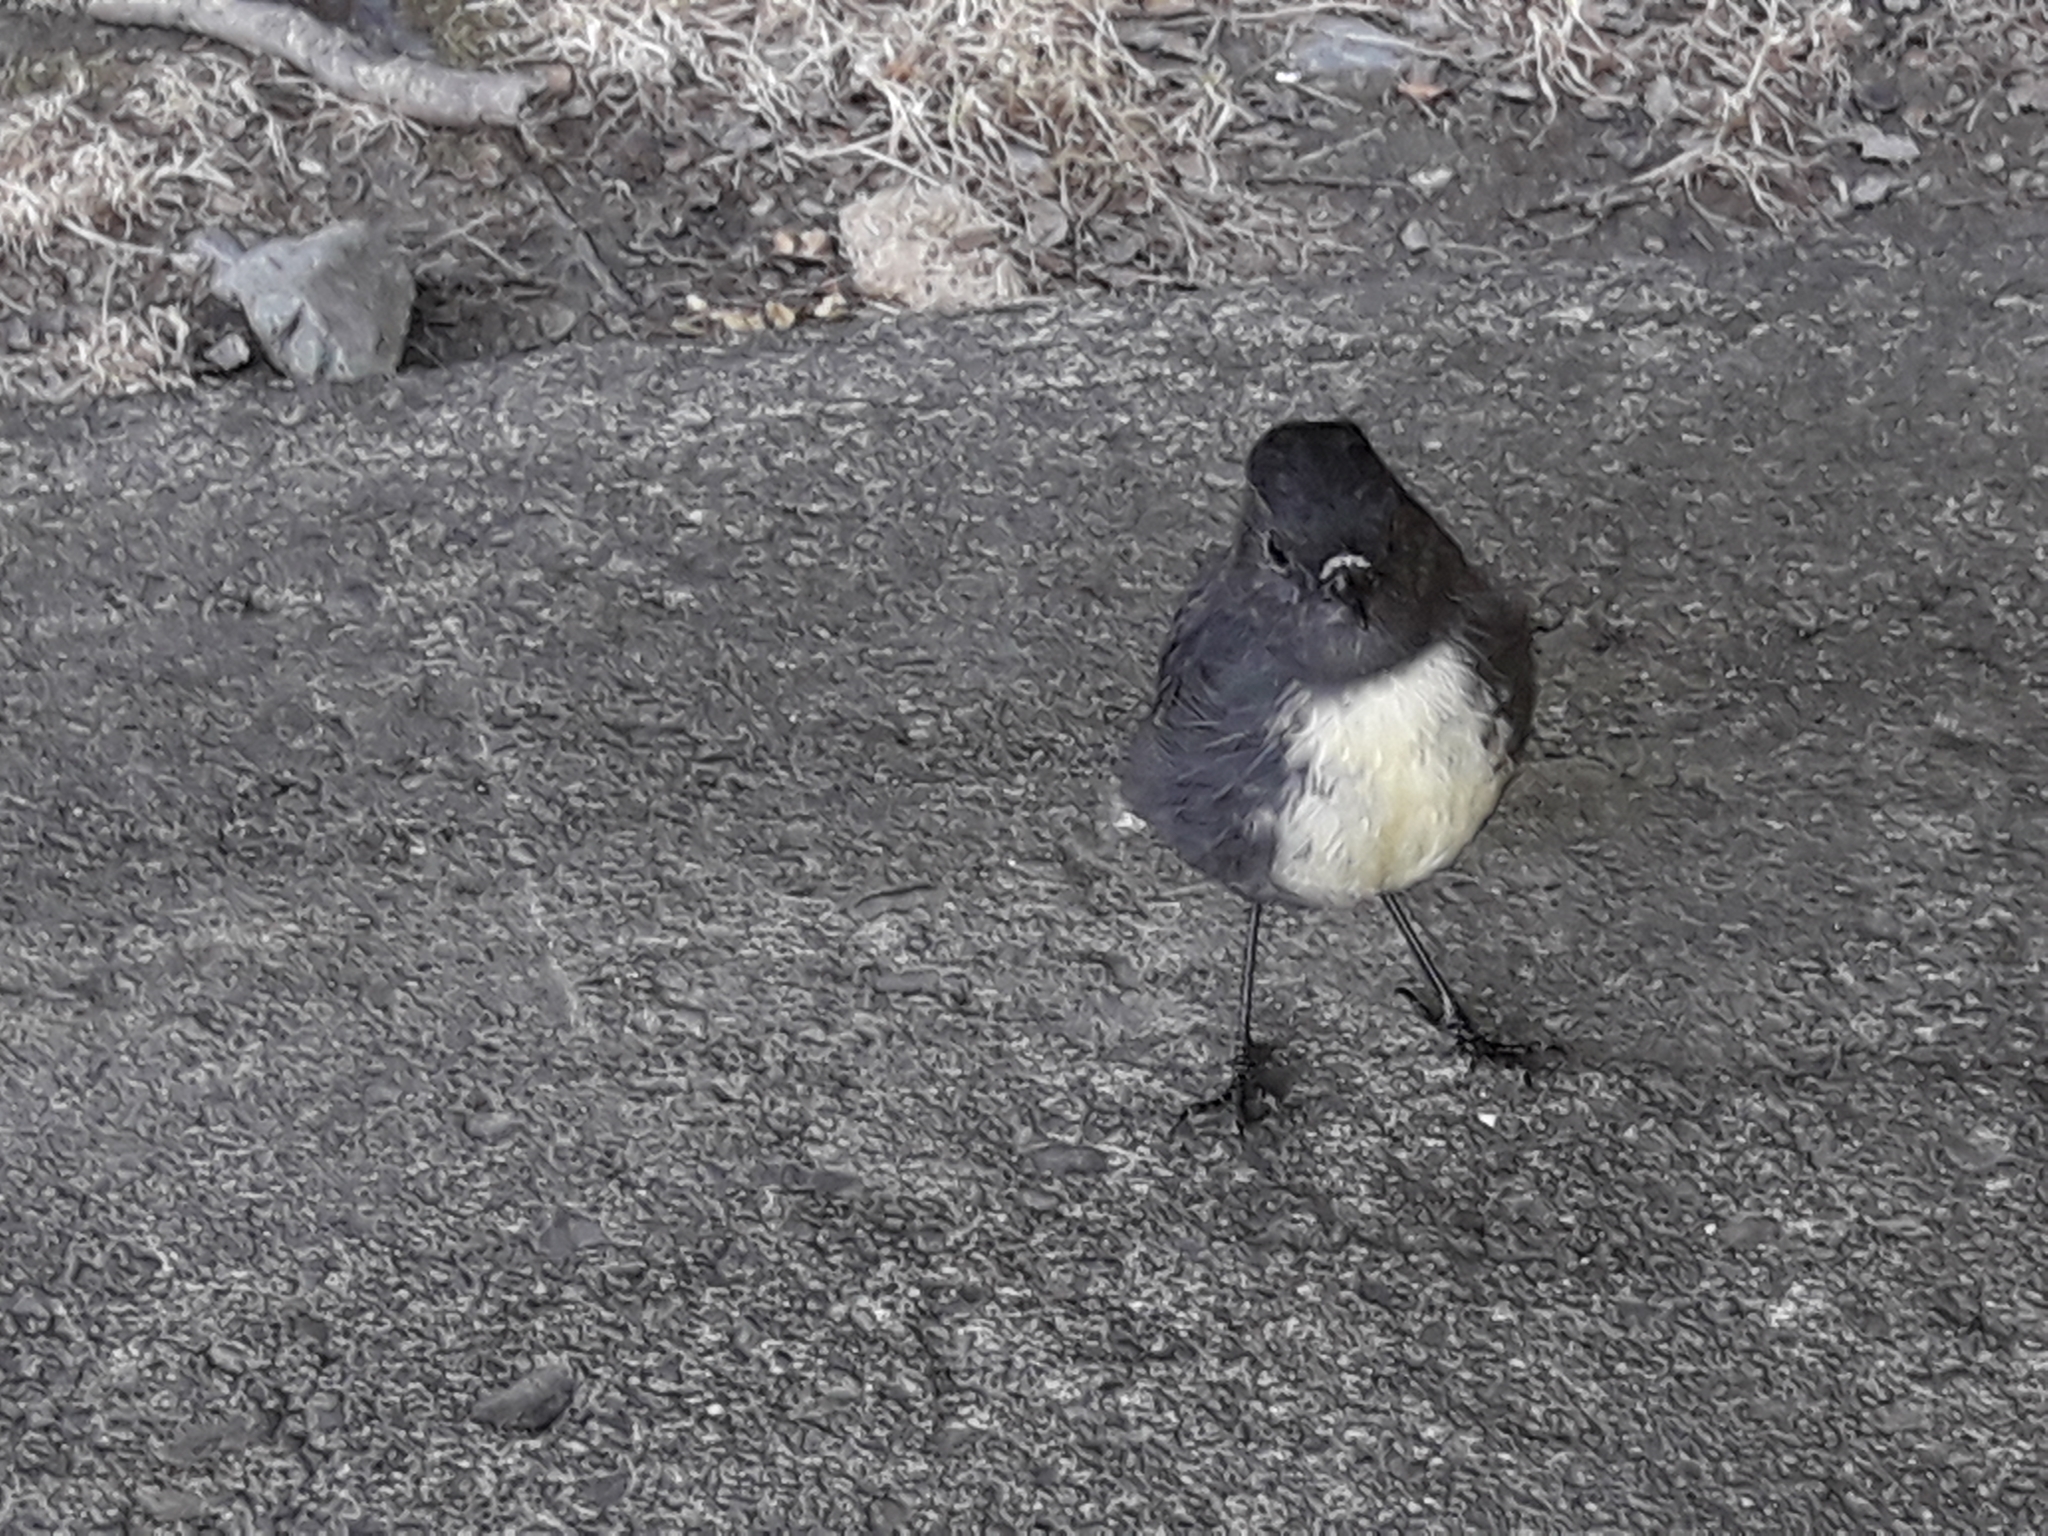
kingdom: Animalia
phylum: Chordata
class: Aves
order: Passeriformes
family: Petroicidae
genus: Petroica
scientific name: Petroica australis
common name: New zealand robin
